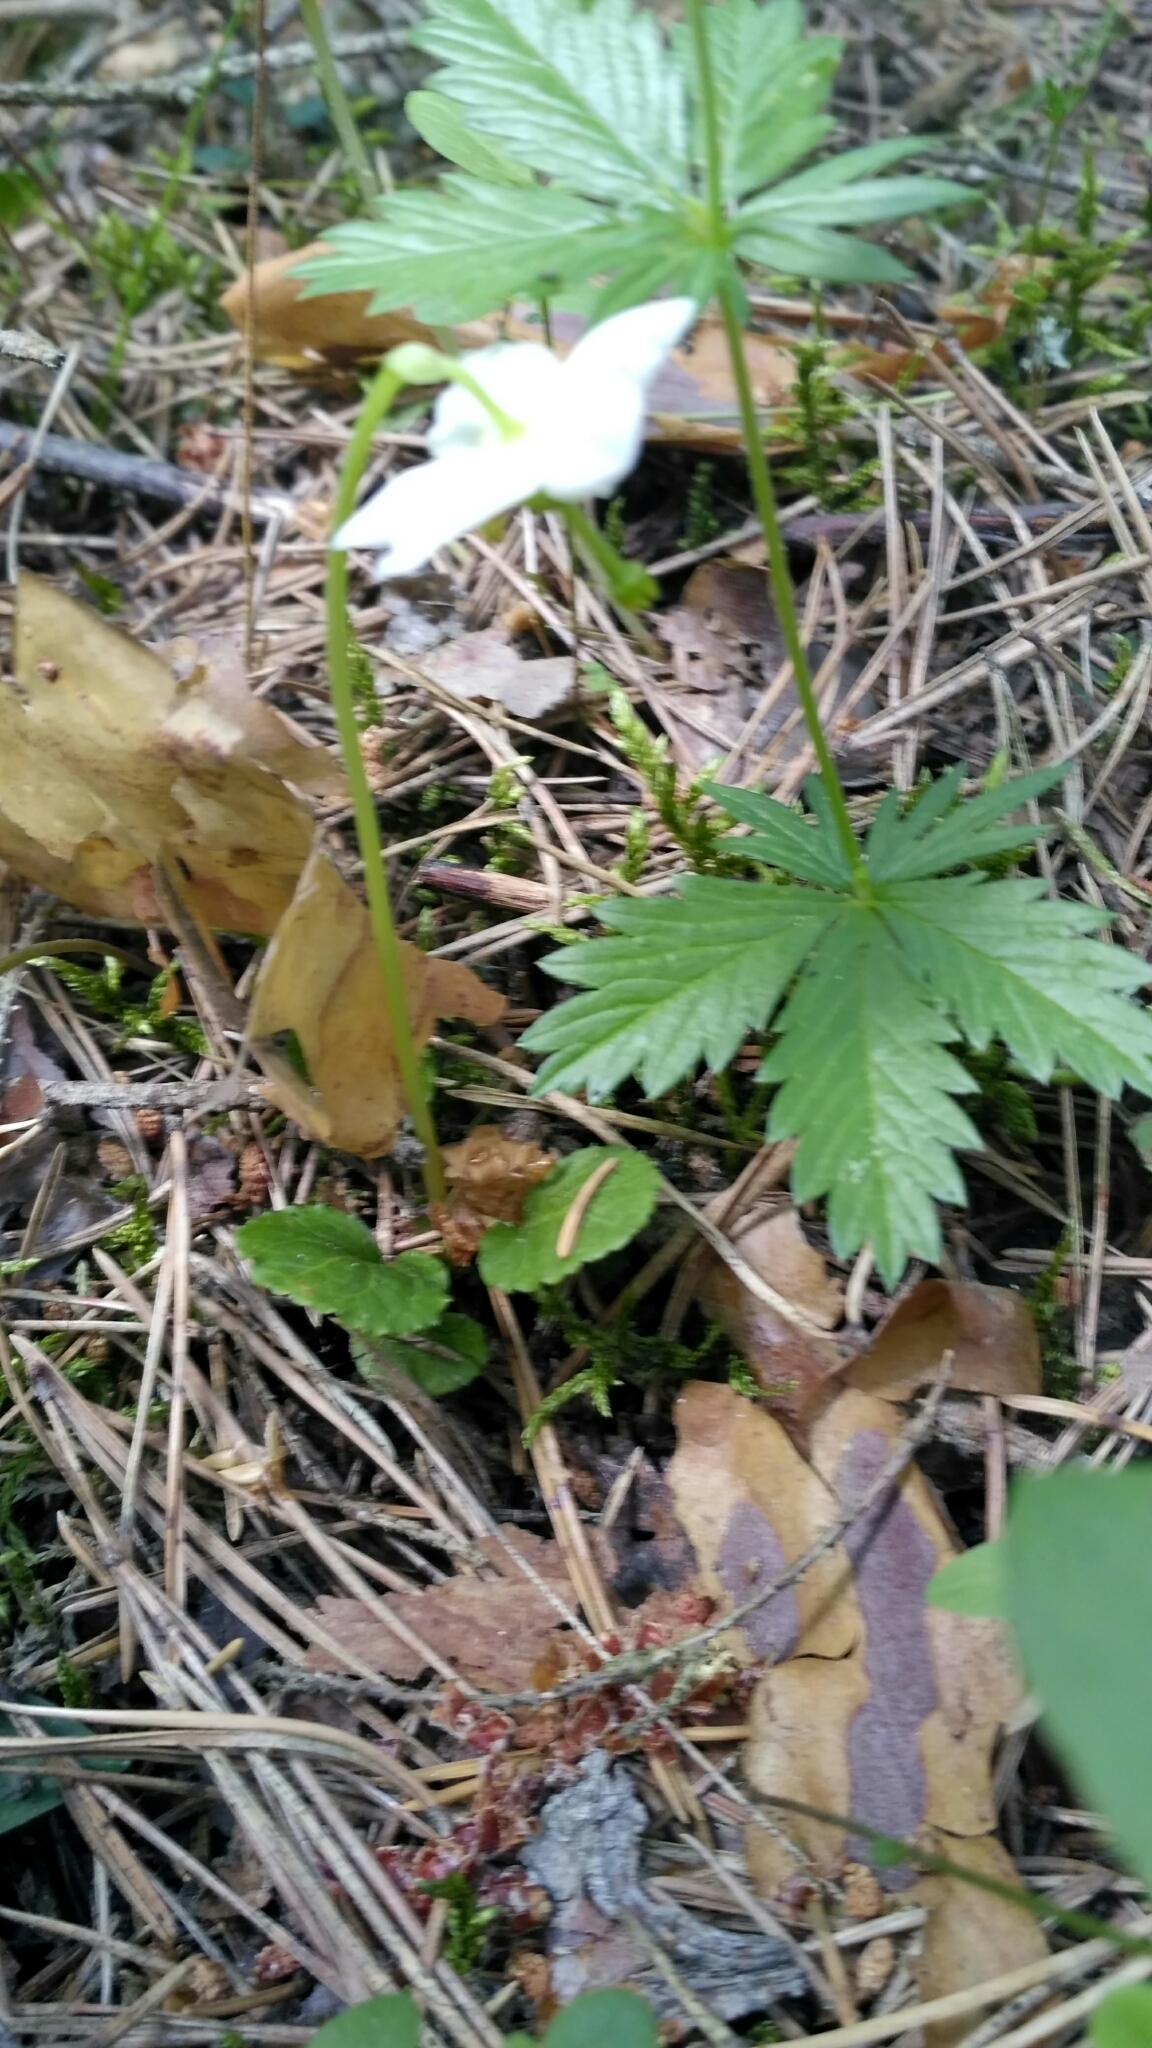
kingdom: Plantae
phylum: Tracheophyta
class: Magnoliopsida
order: Ericales
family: Ericaceae
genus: Moneses
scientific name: Moneses uniflora
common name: One-flowered wintergreen
